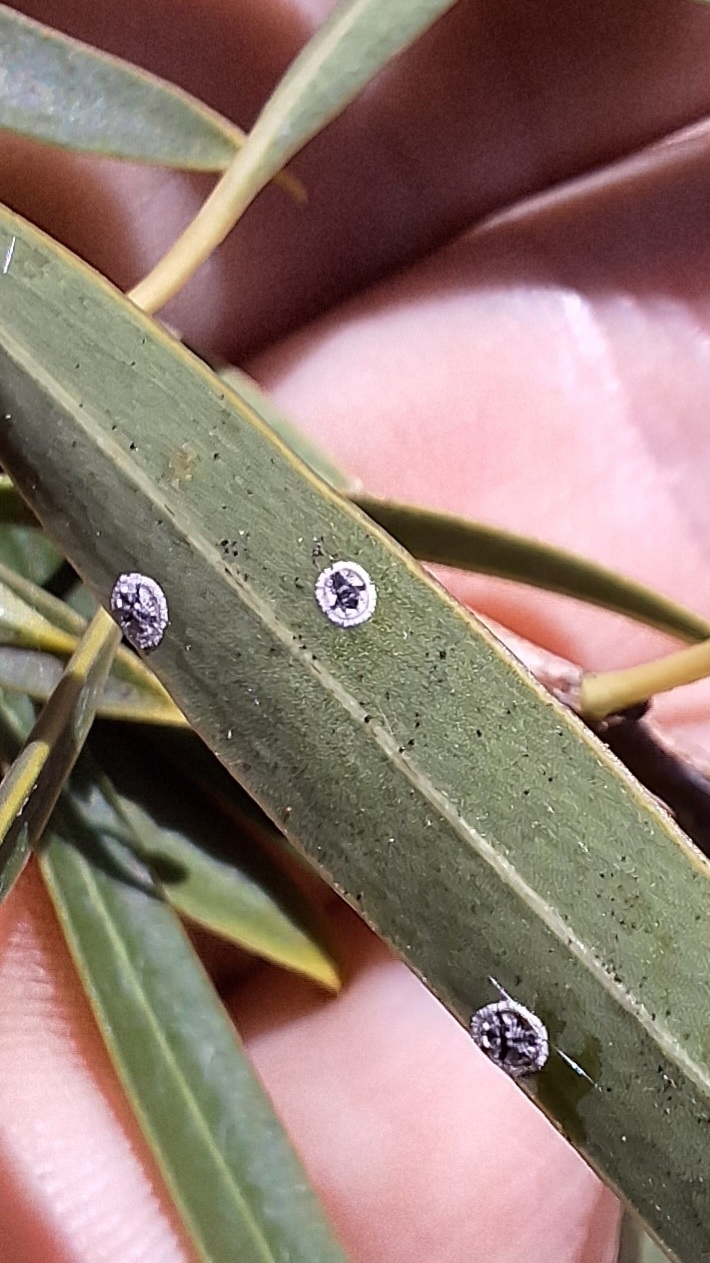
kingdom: Animalia
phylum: Arthropoda
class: Insecta
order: Hemiptera
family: Aleyrodidae
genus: Dumbletoniella
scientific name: Dumbletoniella pittospori
